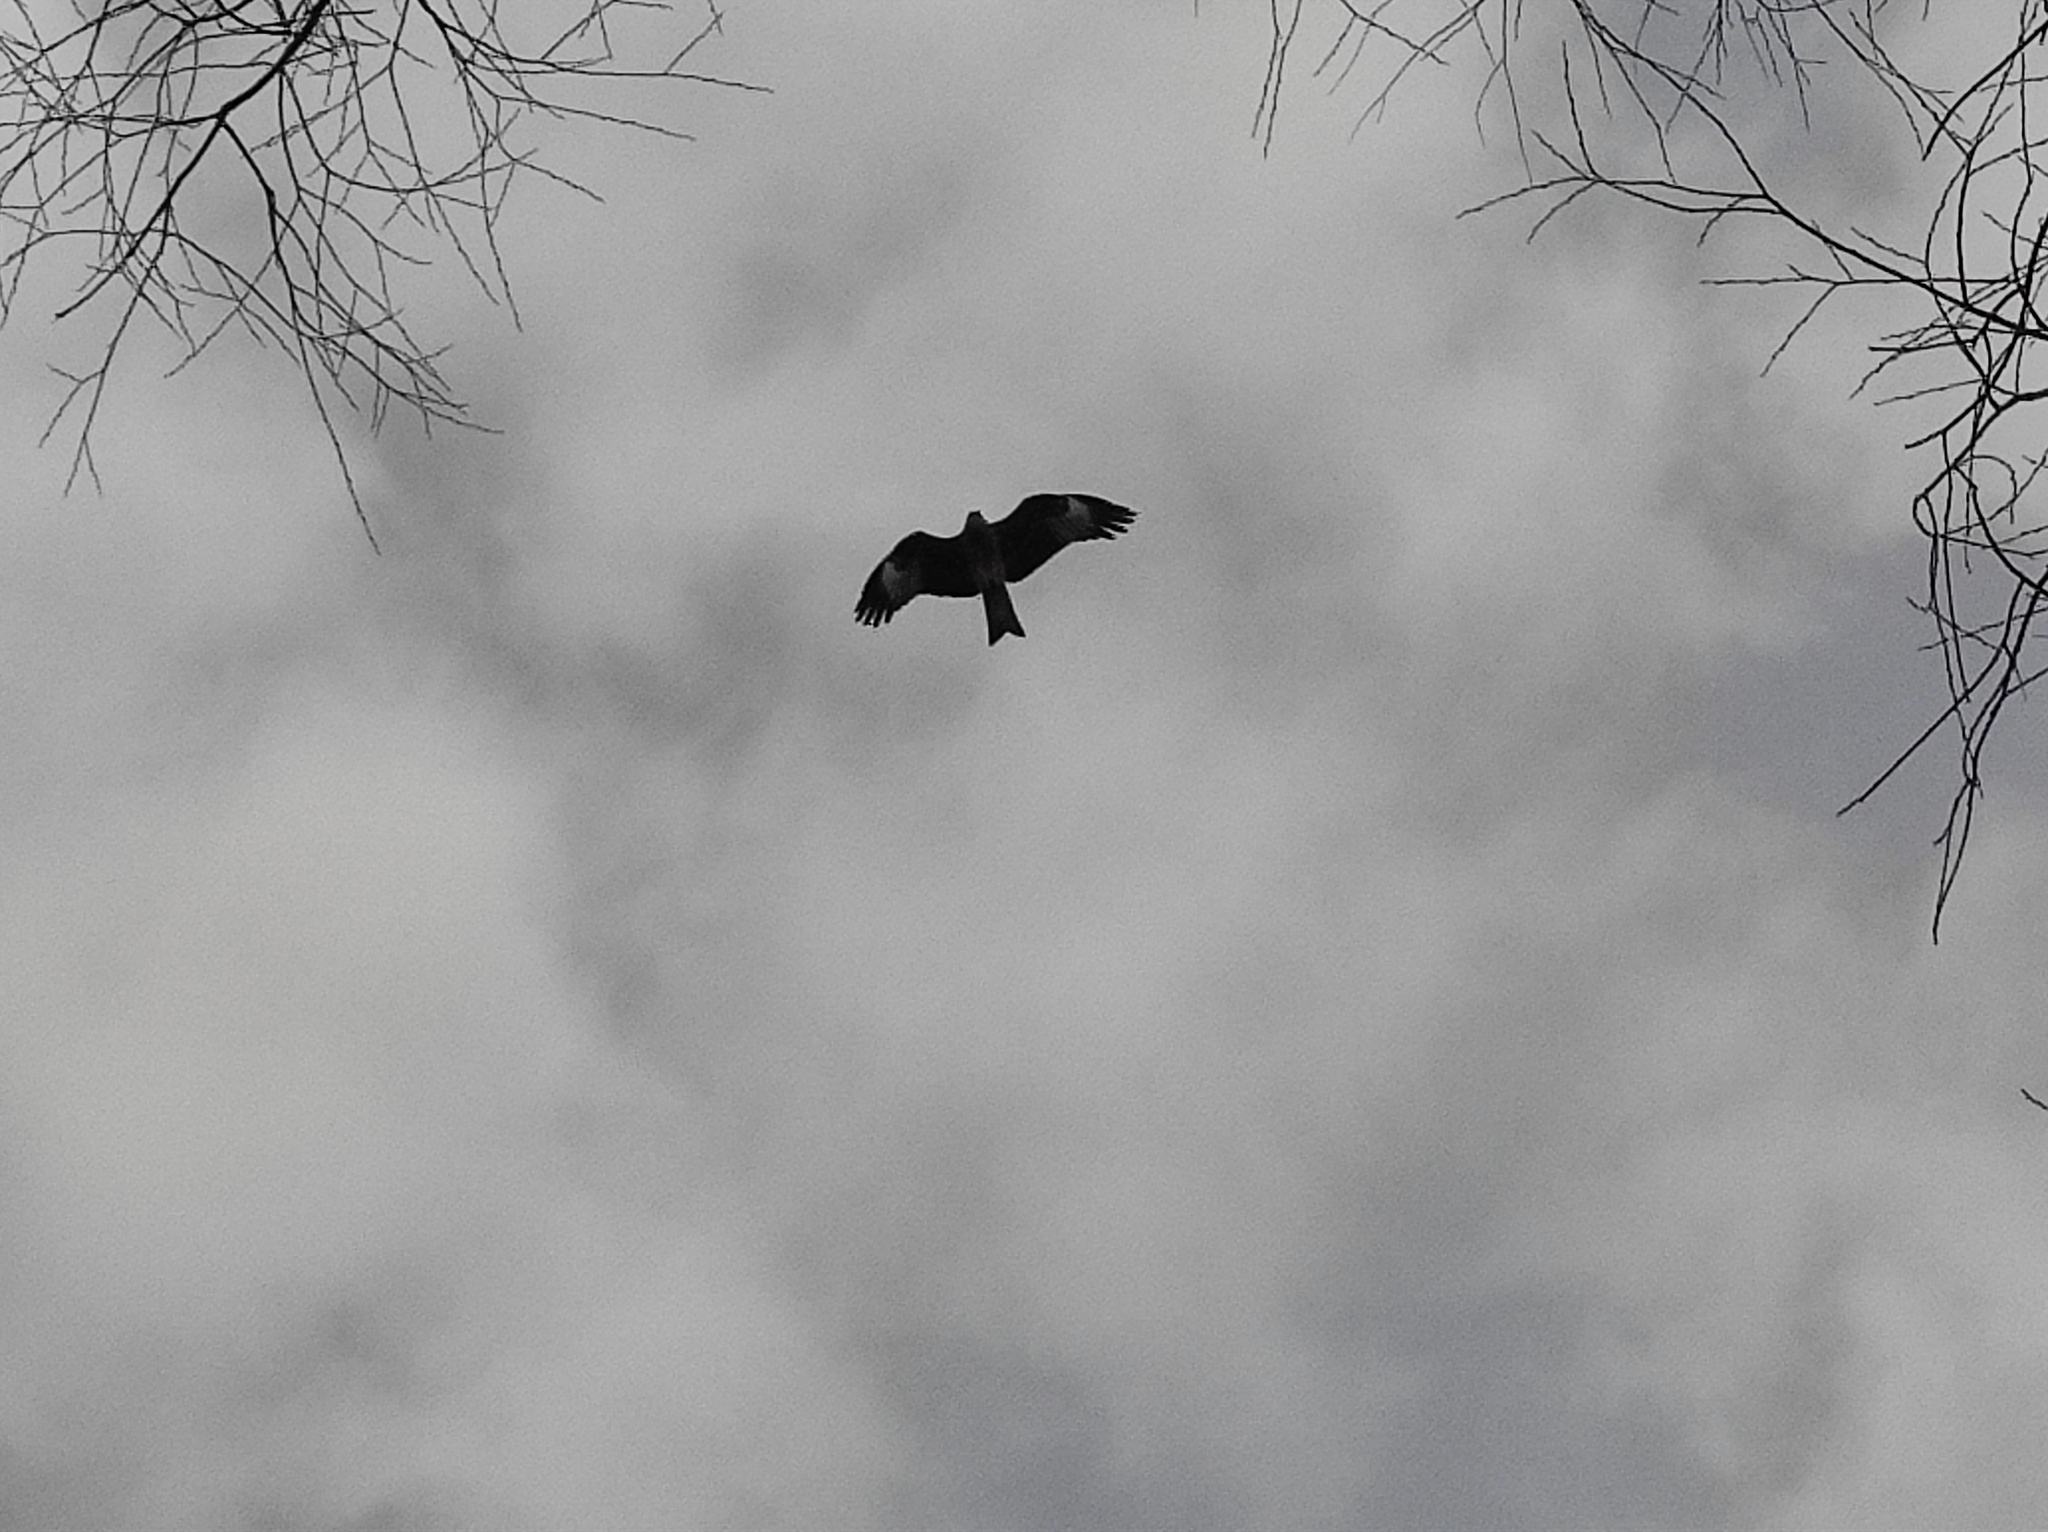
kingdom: Animalia
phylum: Chordata
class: Aves
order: Accipitriformes
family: Accipitridae
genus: Milvus
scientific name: Milvus migrans
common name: Black kite
